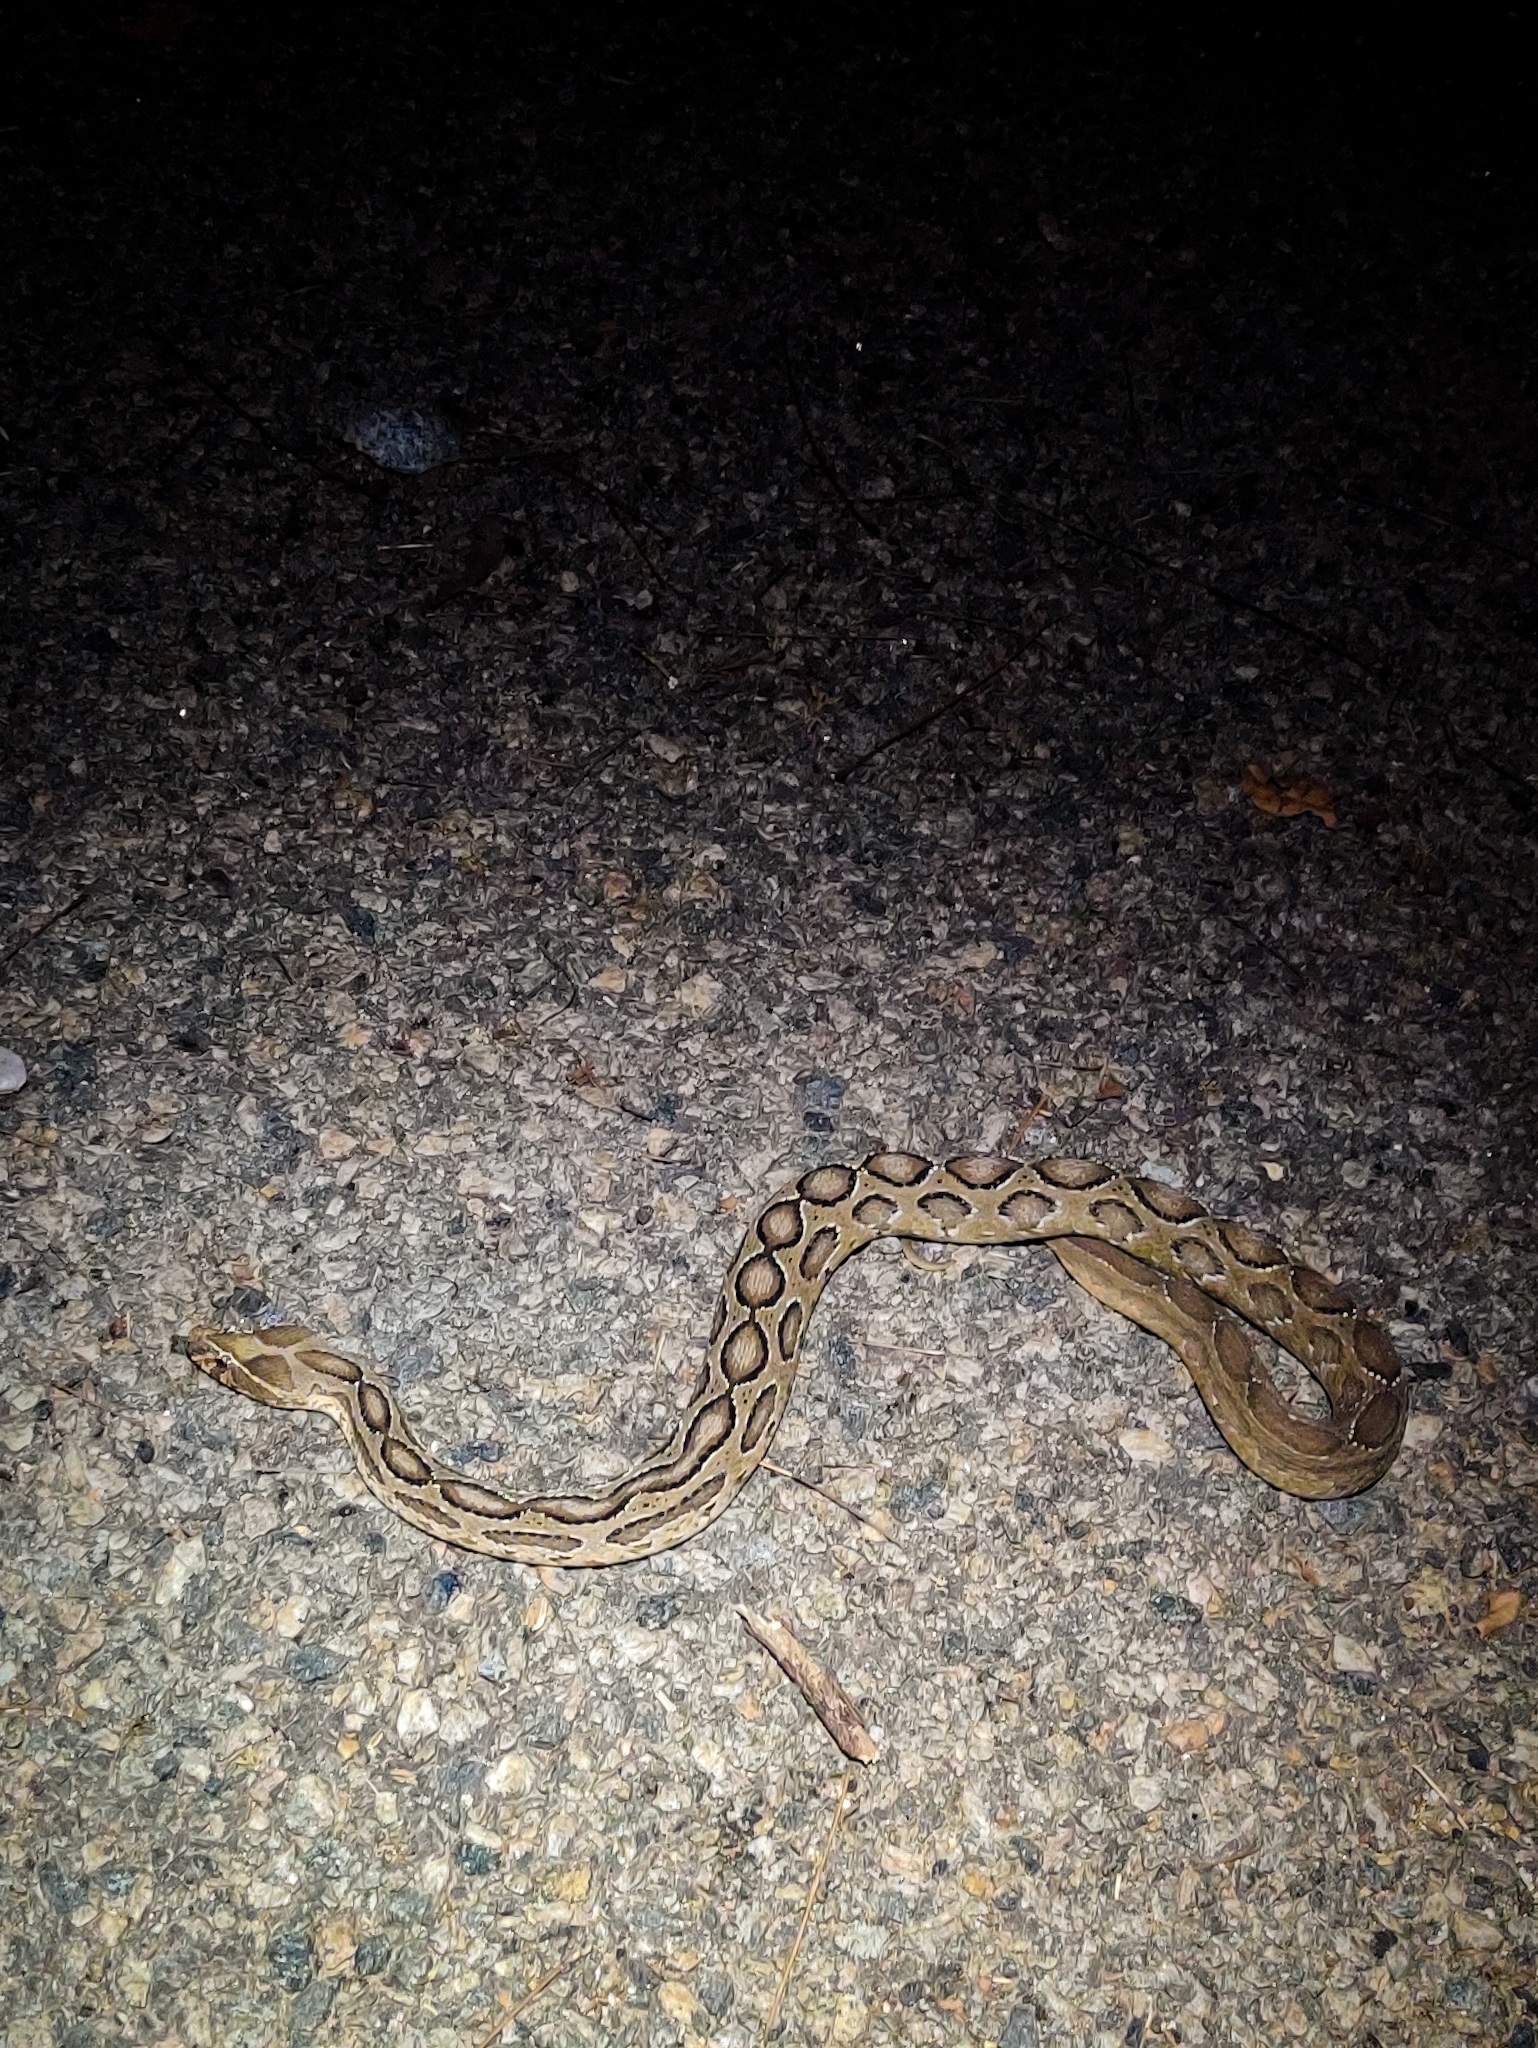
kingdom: Animalia
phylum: Chordata
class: Squamata
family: Viperidae
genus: Daboia
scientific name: Daboia russelii
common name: Western russel’s viper
